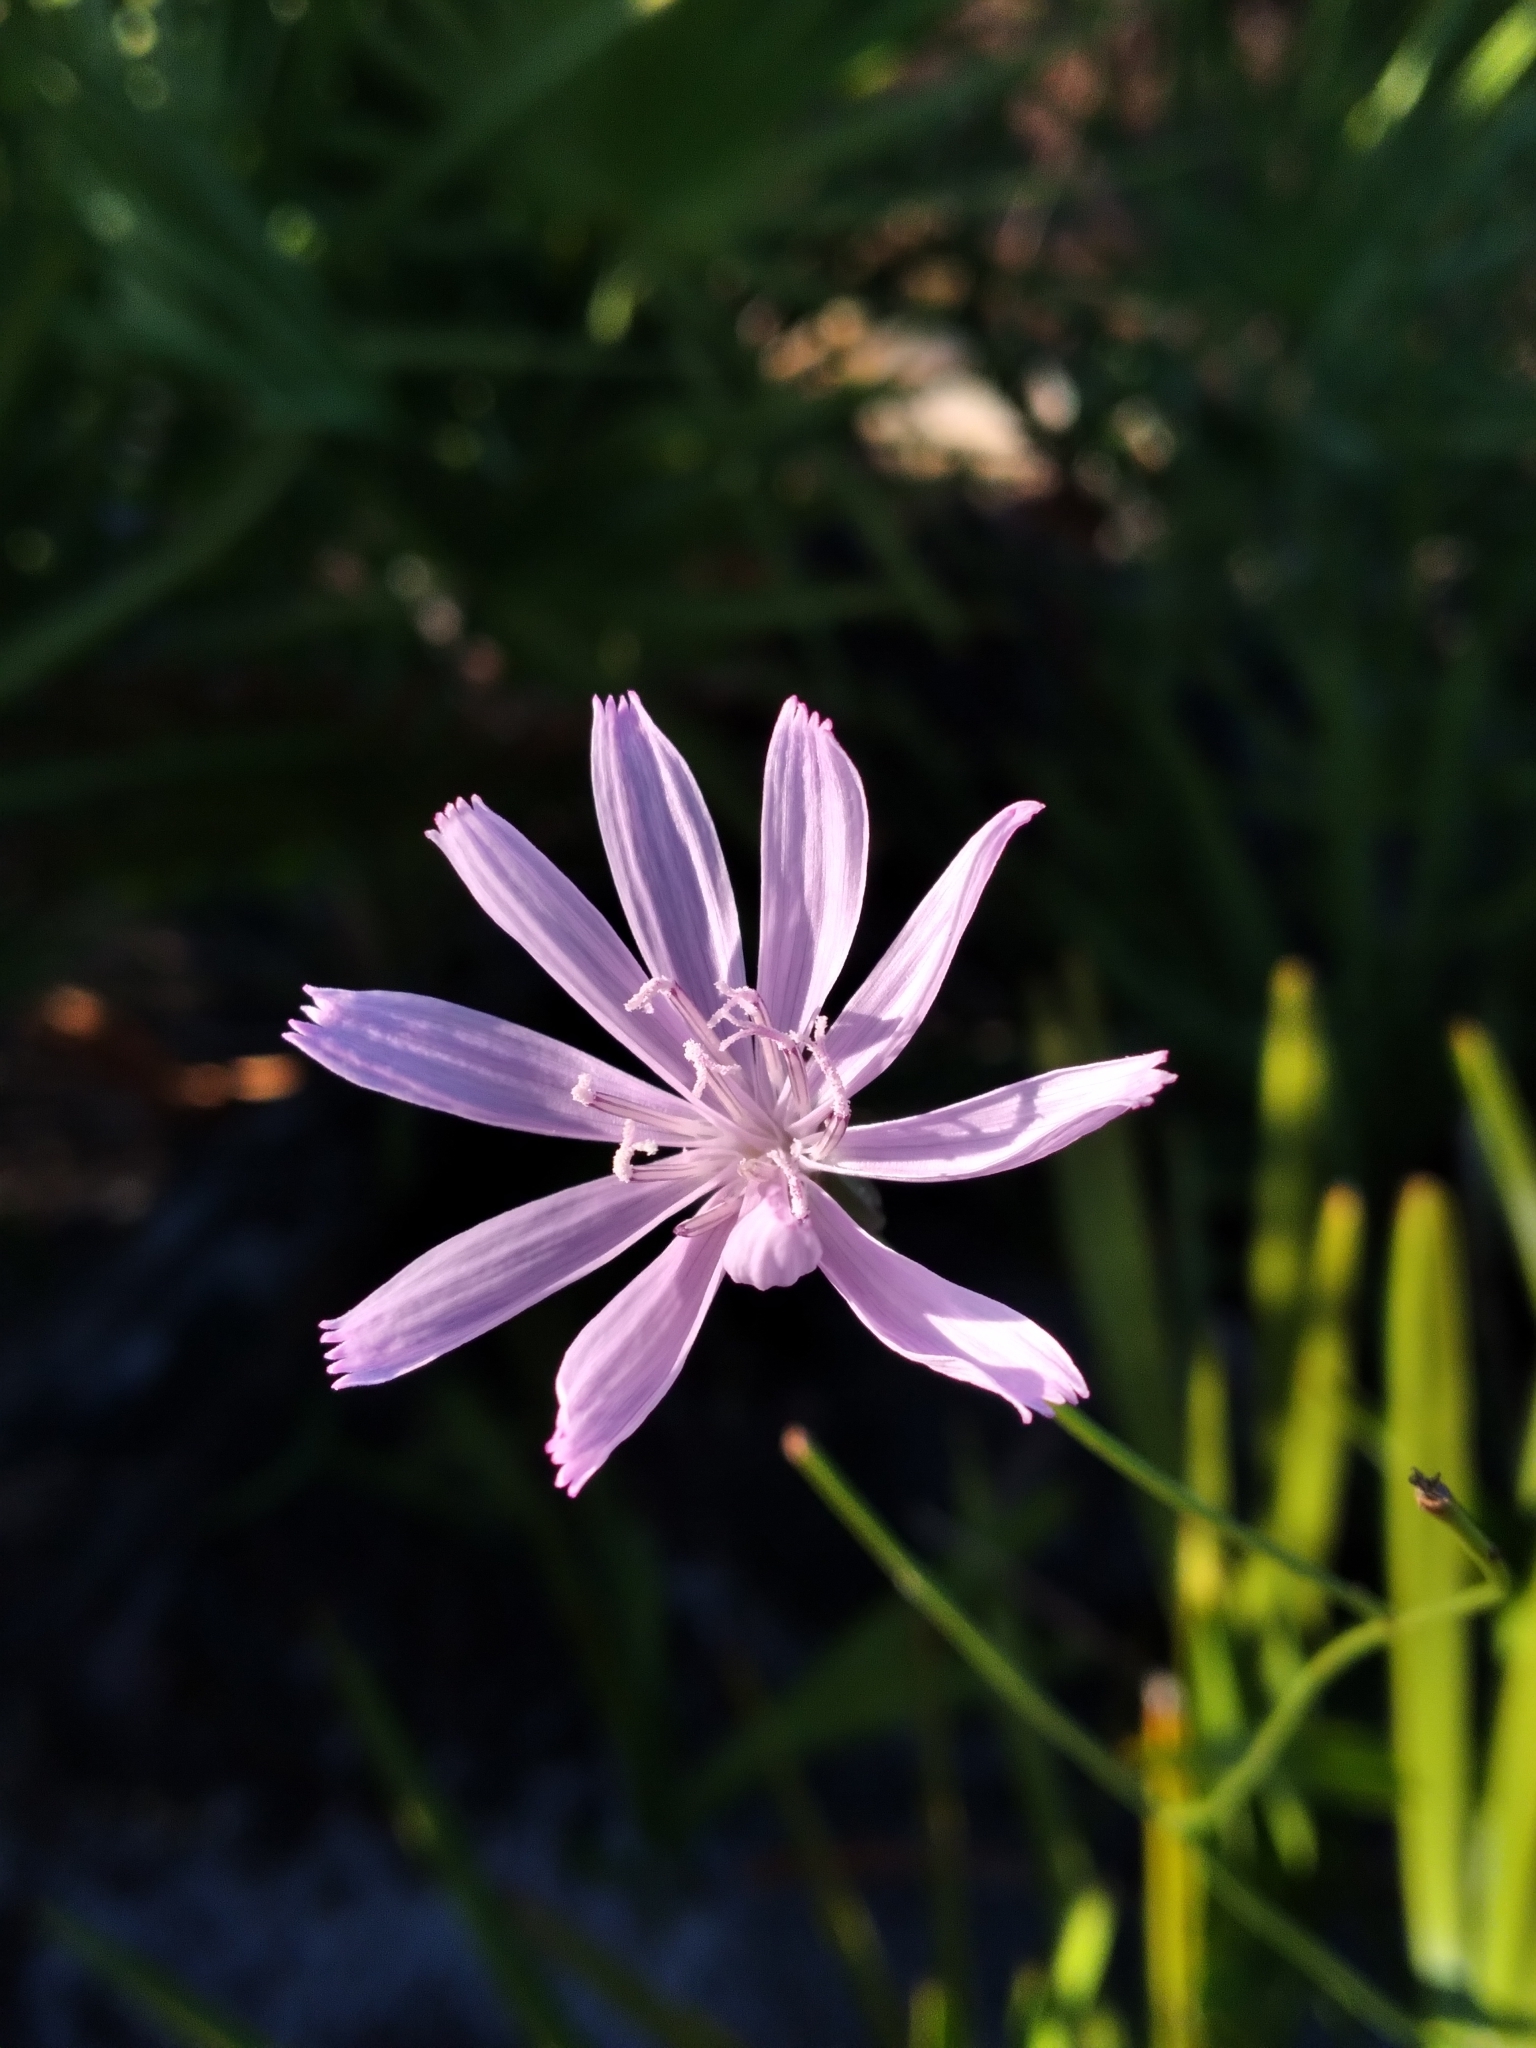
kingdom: Plantae
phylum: Tracheophyta
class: Magnoliopsida
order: Asterales
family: Asteraceae
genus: Lygodesmia
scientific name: Lygodesmia aphylla
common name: Rose-rush
